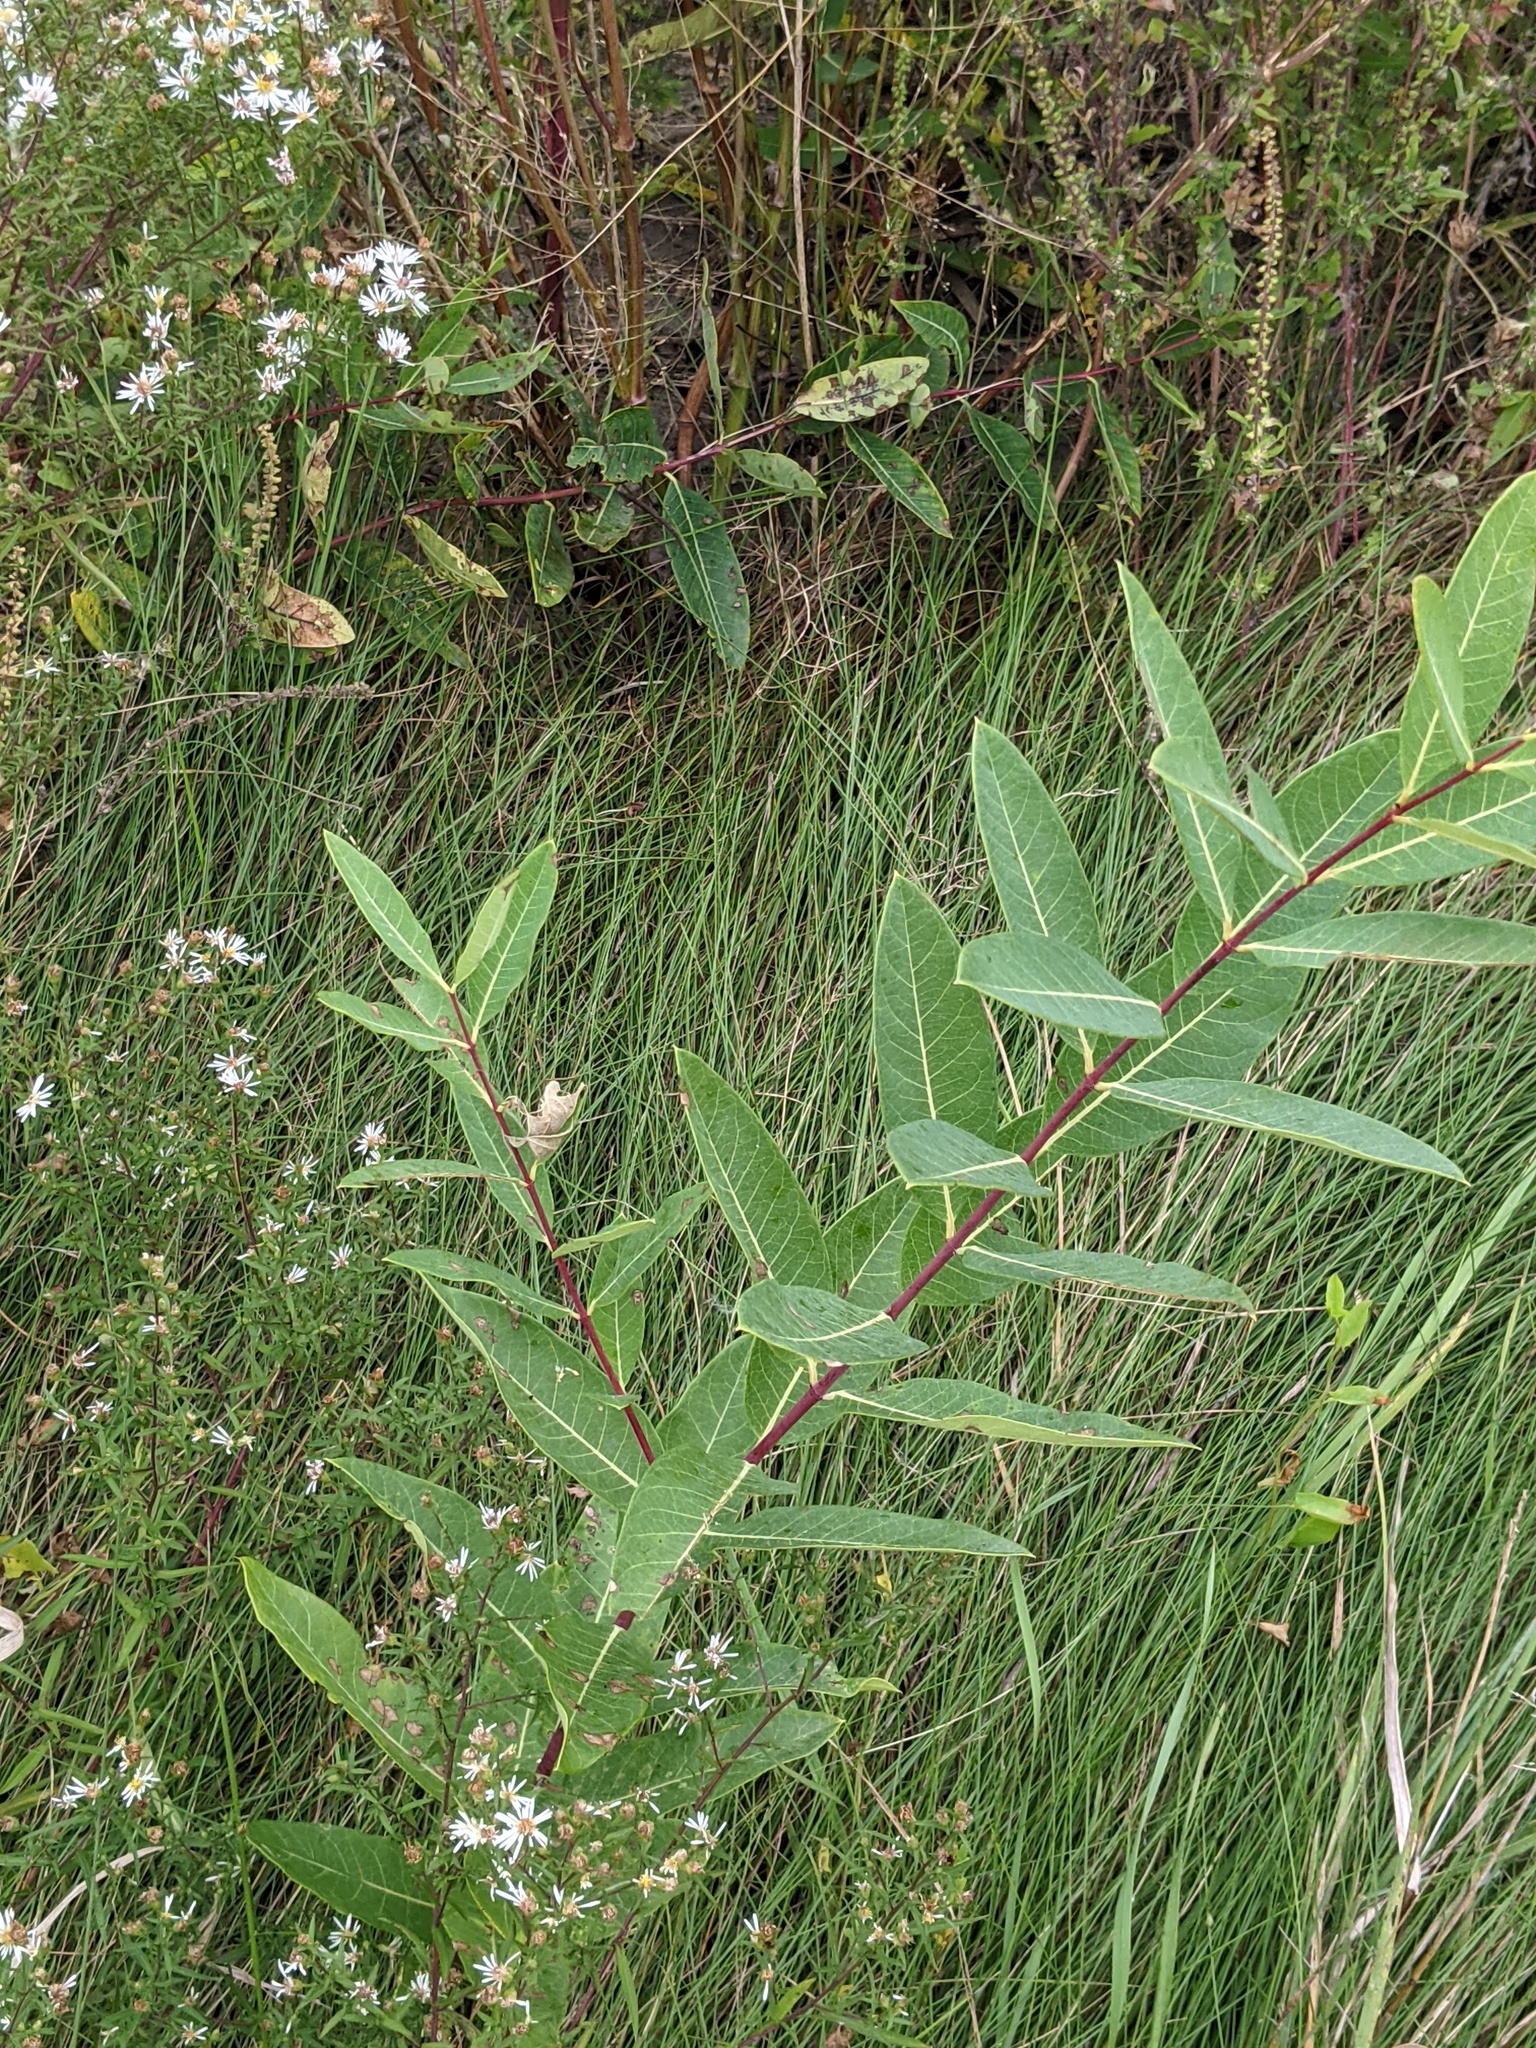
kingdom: Plantae
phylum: Tracheophyta
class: Magnoliopsida
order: Gentianales
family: Apocynaceae
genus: Apocynum
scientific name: Apocynum cannabinum
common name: Hemp dogbane
